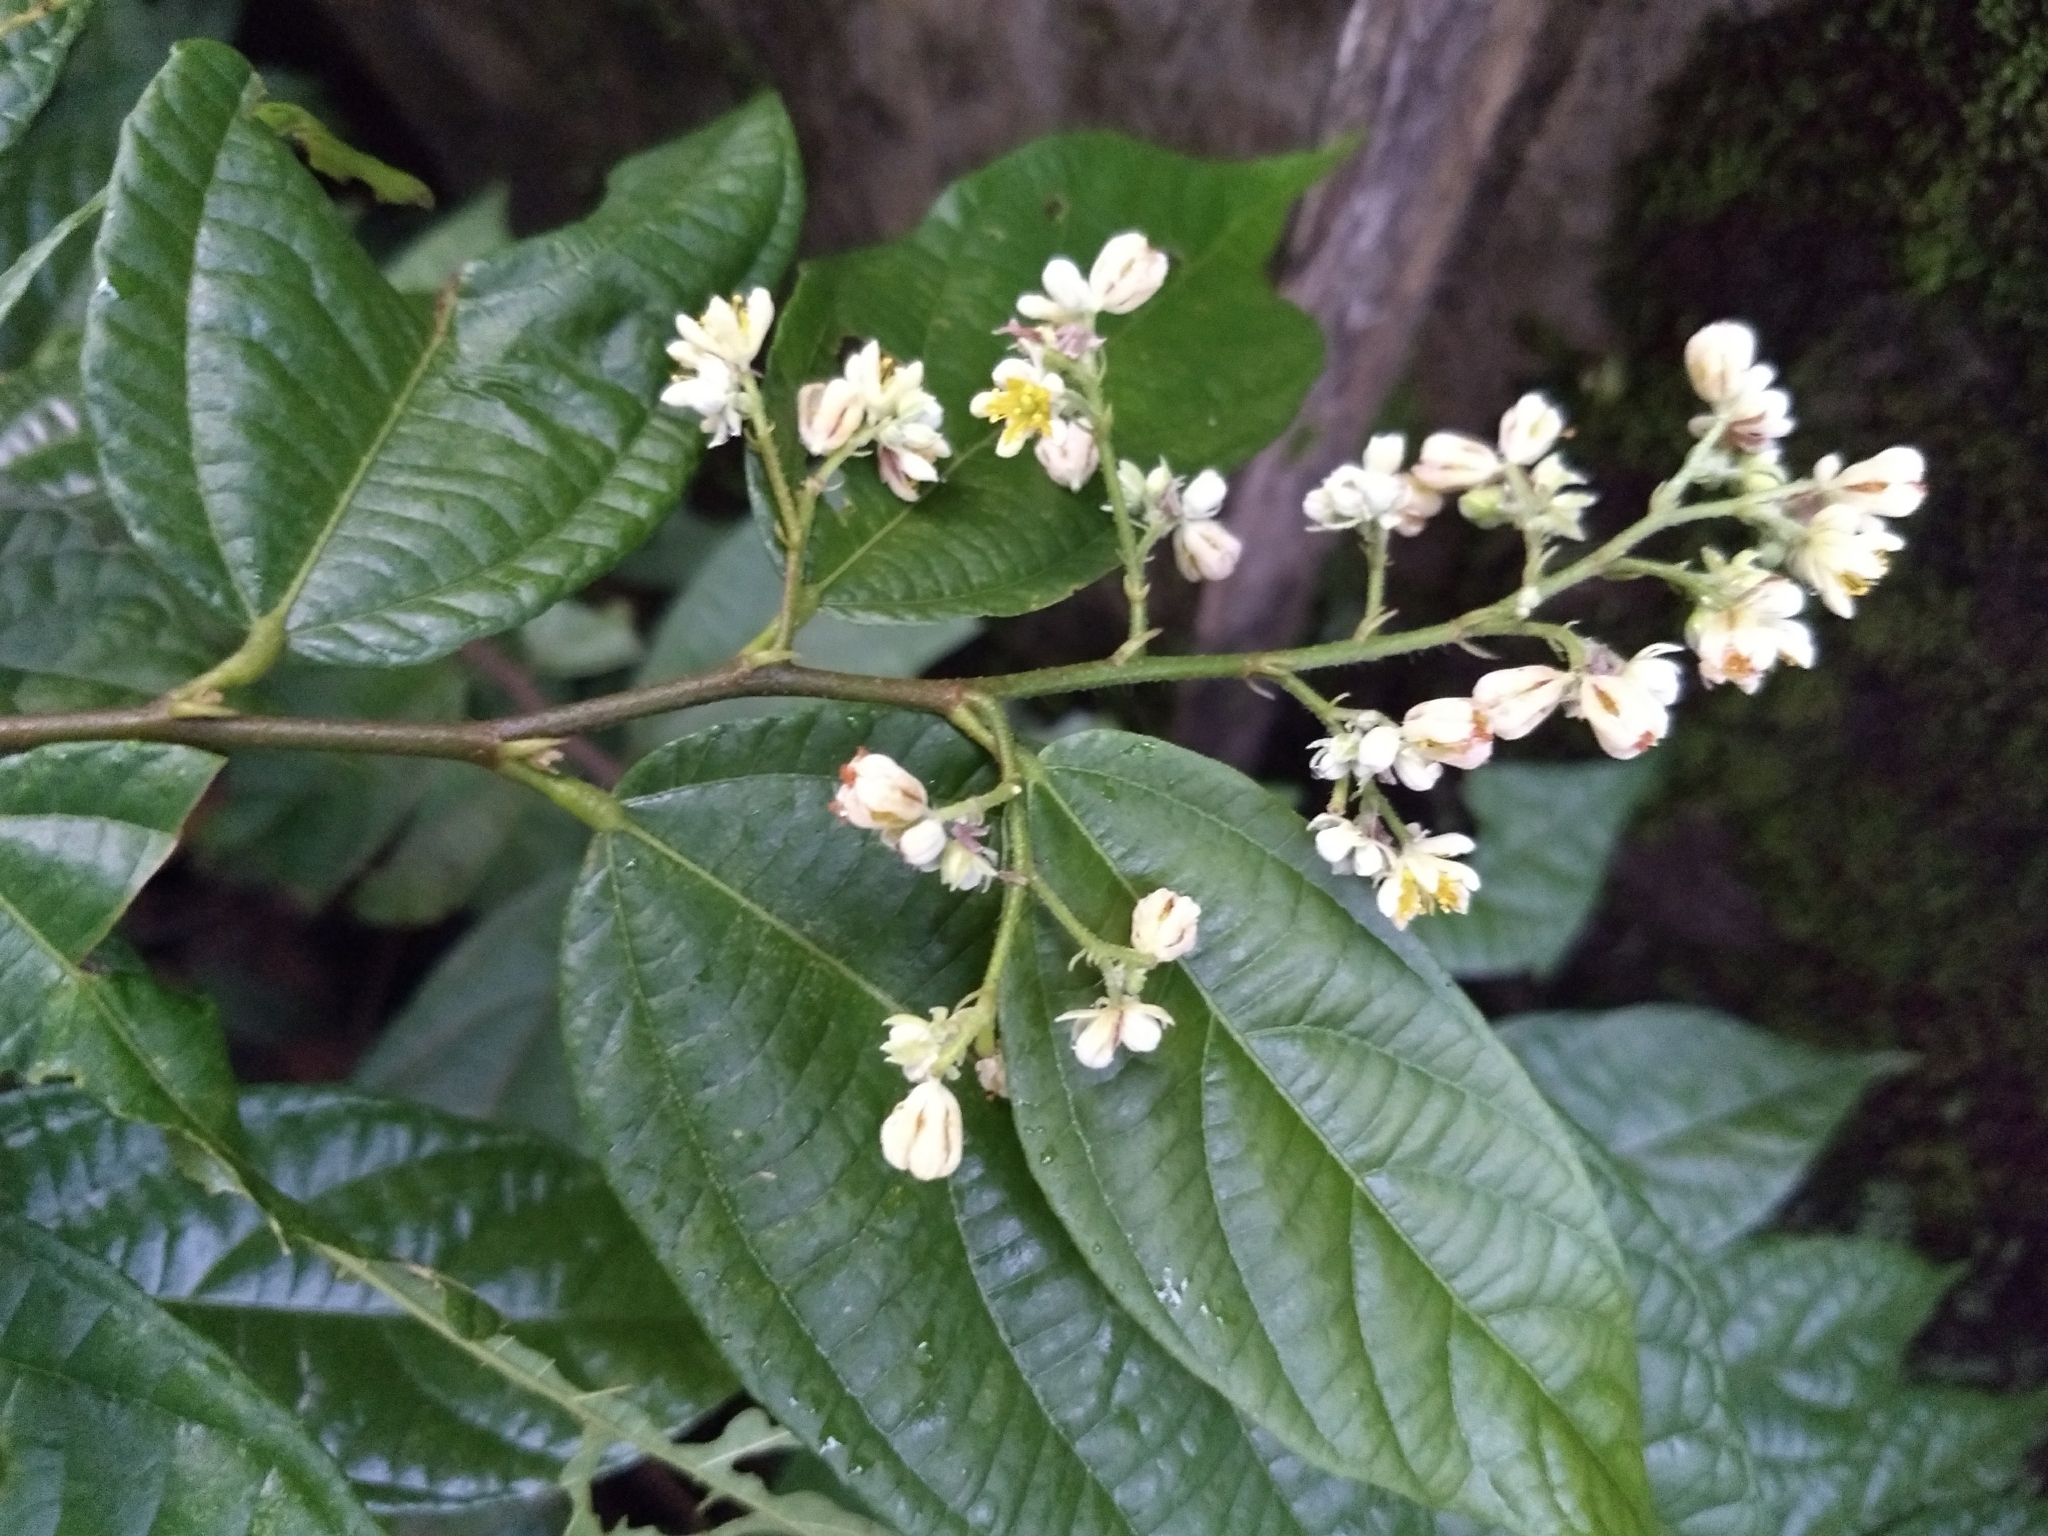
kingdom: Plantae
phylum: Tracheophyta
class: Magnoliopsida
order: Malvales
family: Malvaceae
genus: Microcos
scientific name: Microcos paniculata
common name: Microcos
